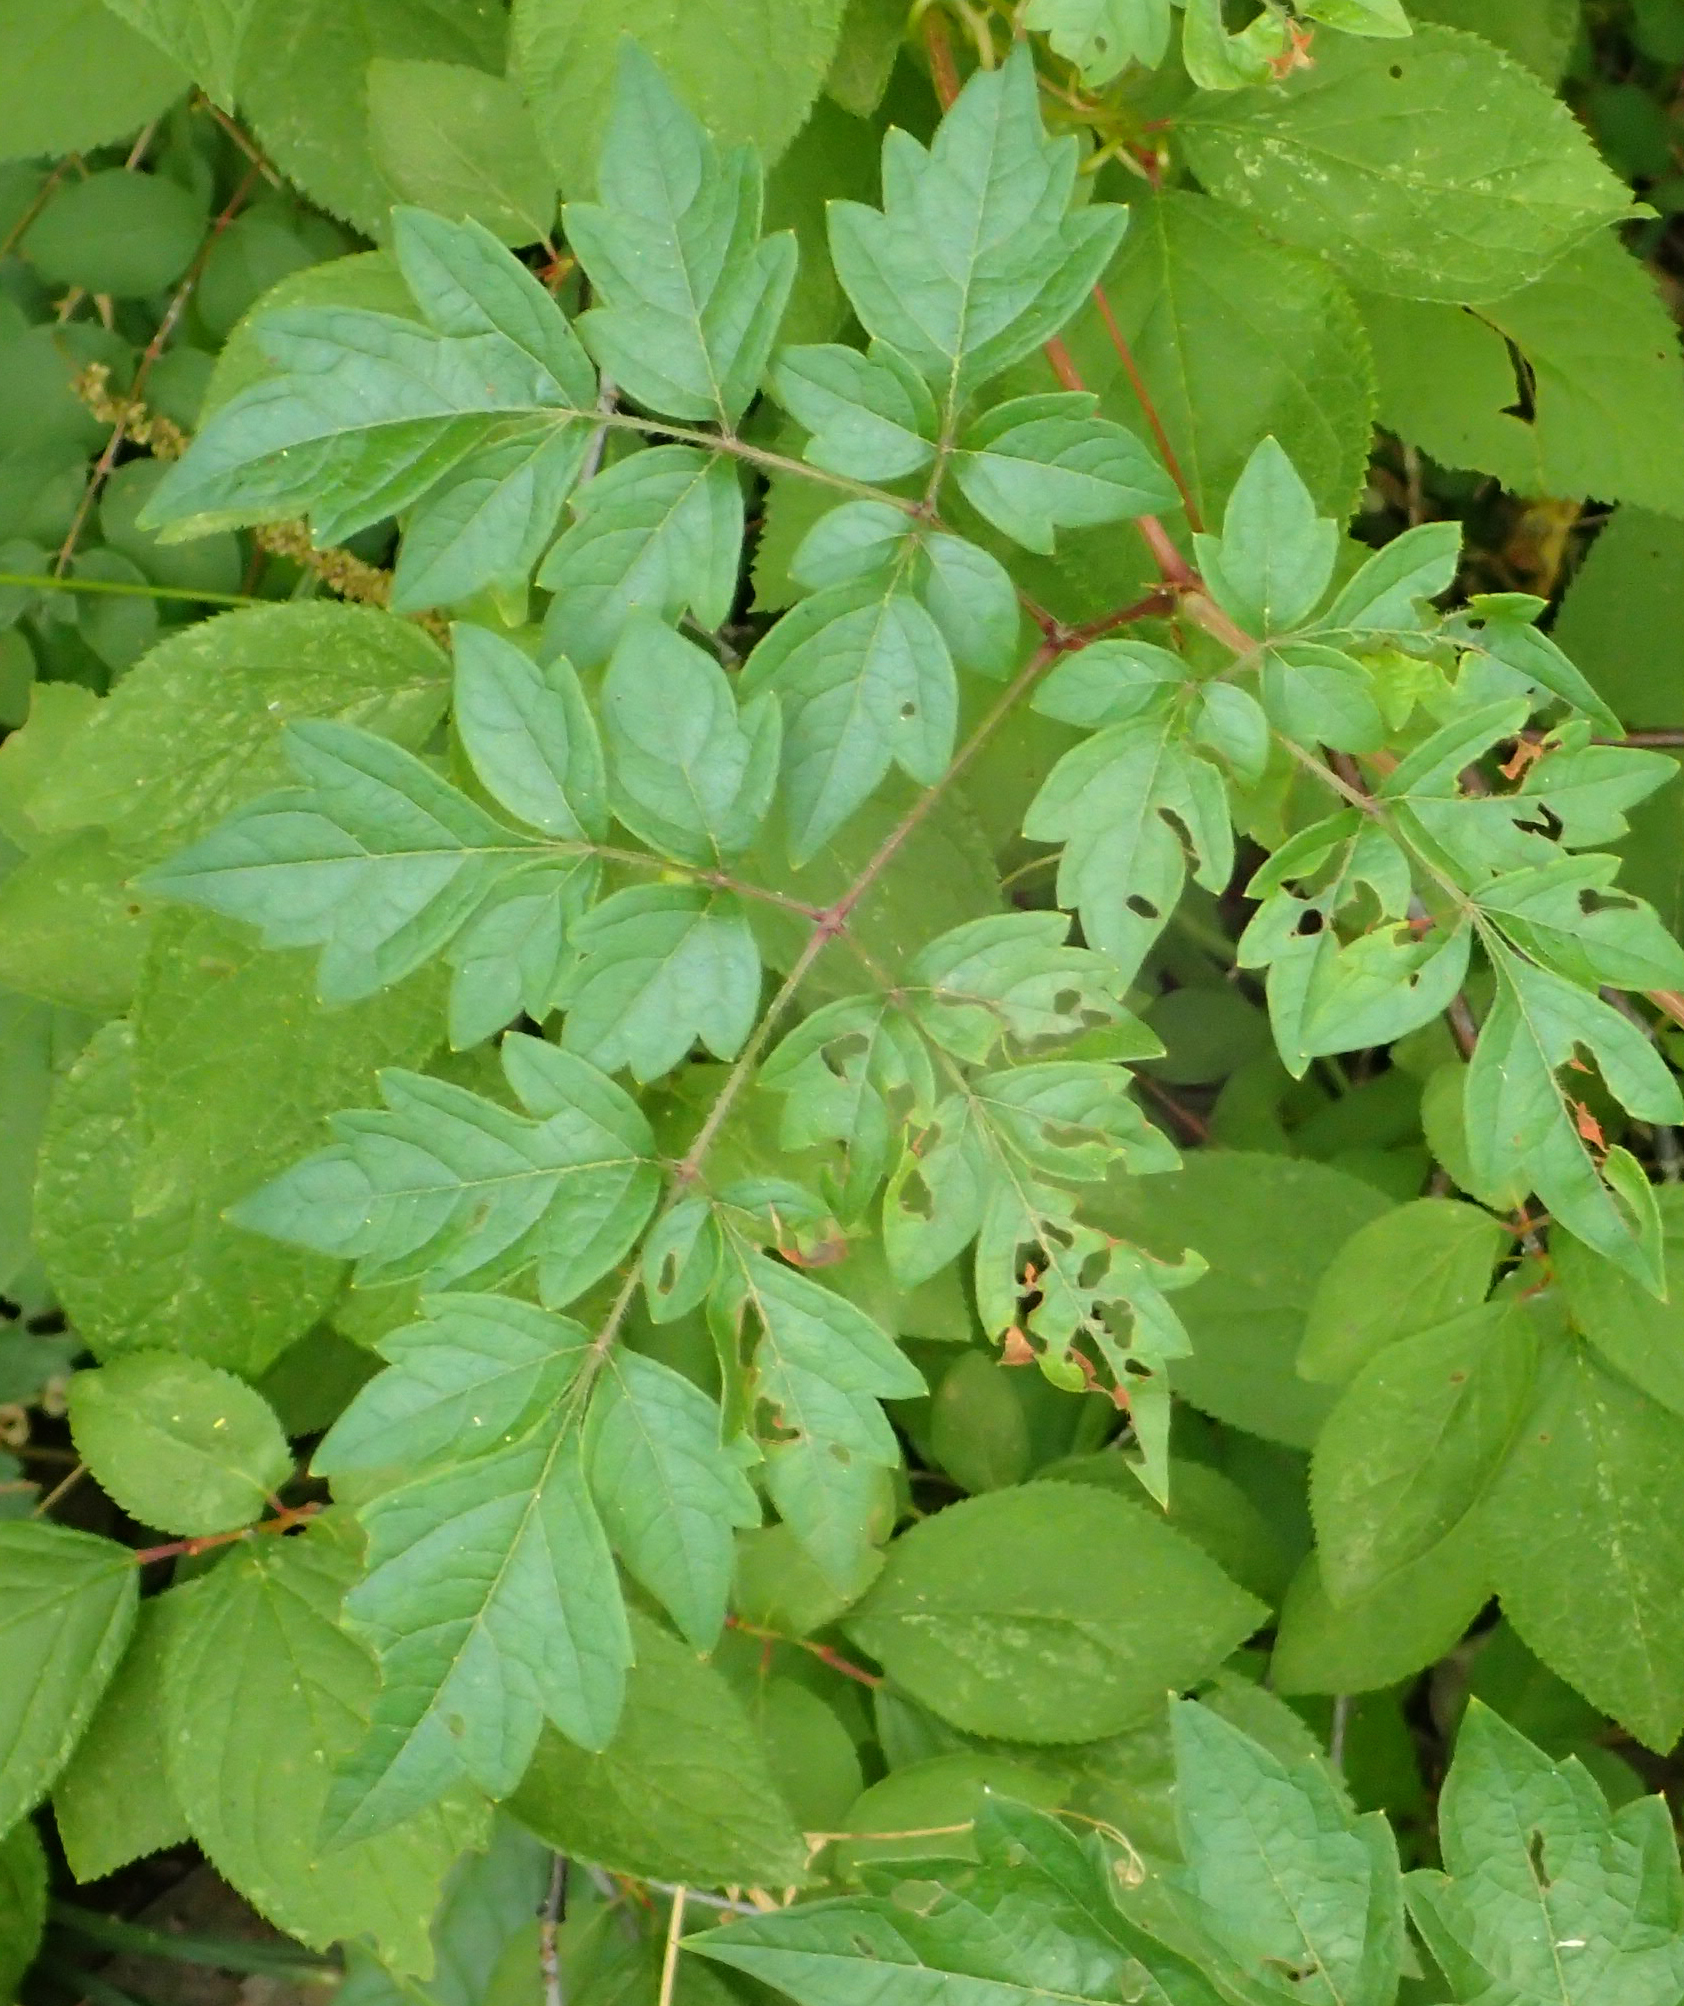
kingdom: Plantae
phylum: Tracheophyta
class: Magnoliopsida
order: Vitales
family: Vitaceae
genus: Nekemias
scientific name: Nekemias arborea
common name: Peppervine
